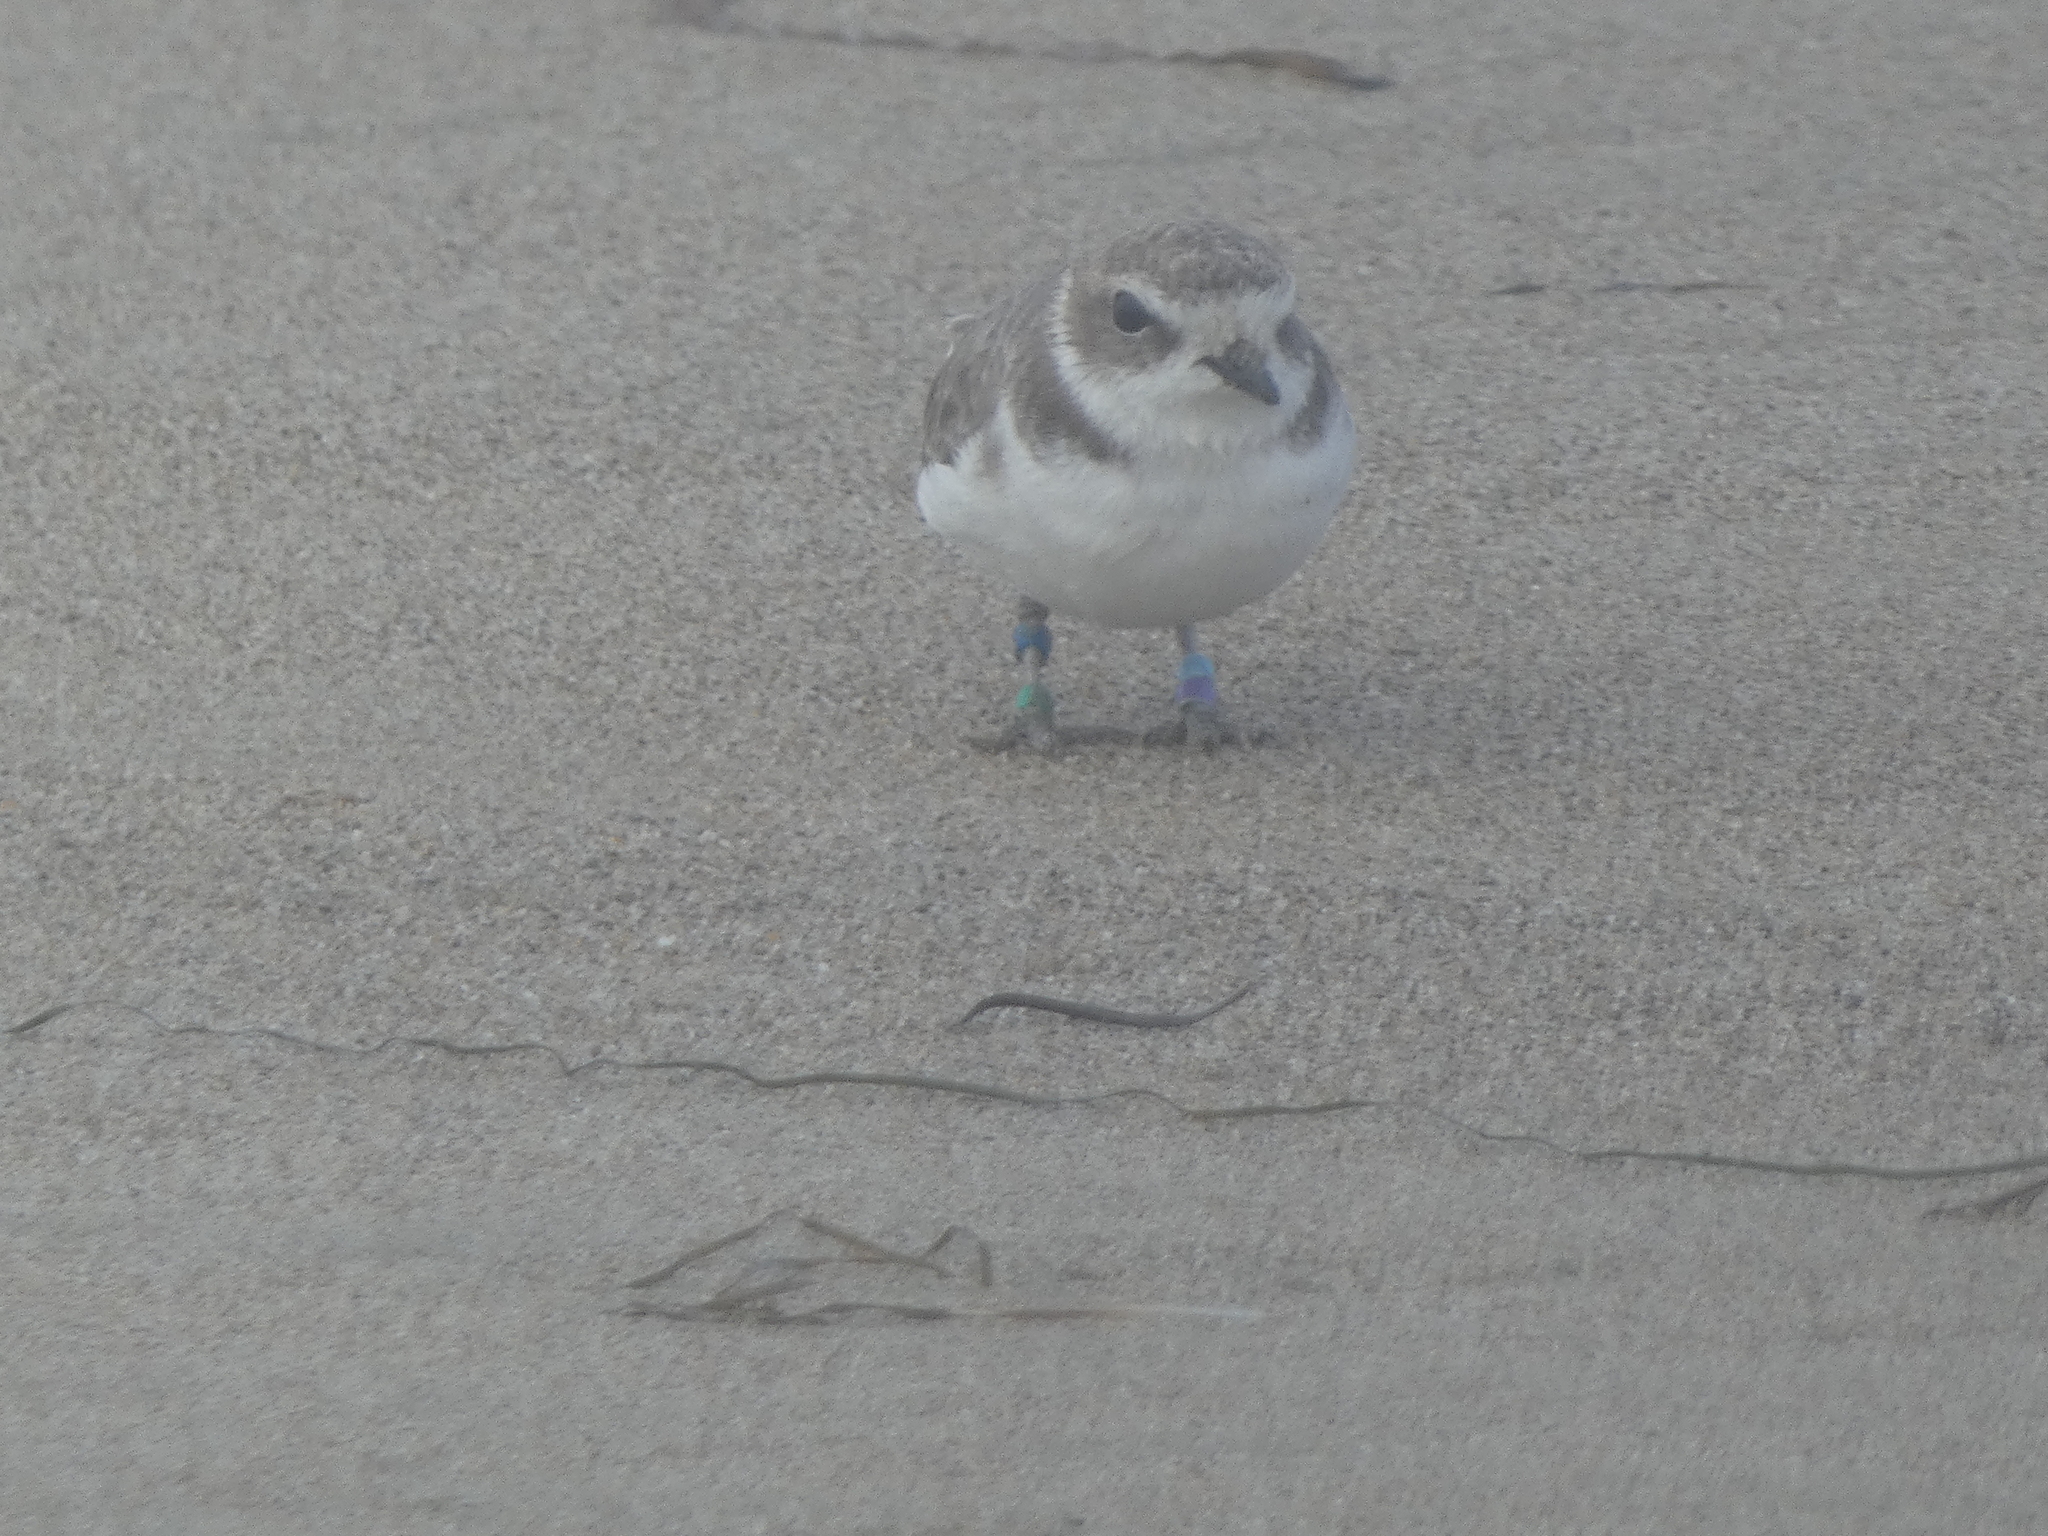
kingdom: Animalia
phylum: Chordata
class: Aves
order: Charadriiformes
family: Charadriidae
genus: Anarhynchus
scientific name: Anarhynchus
